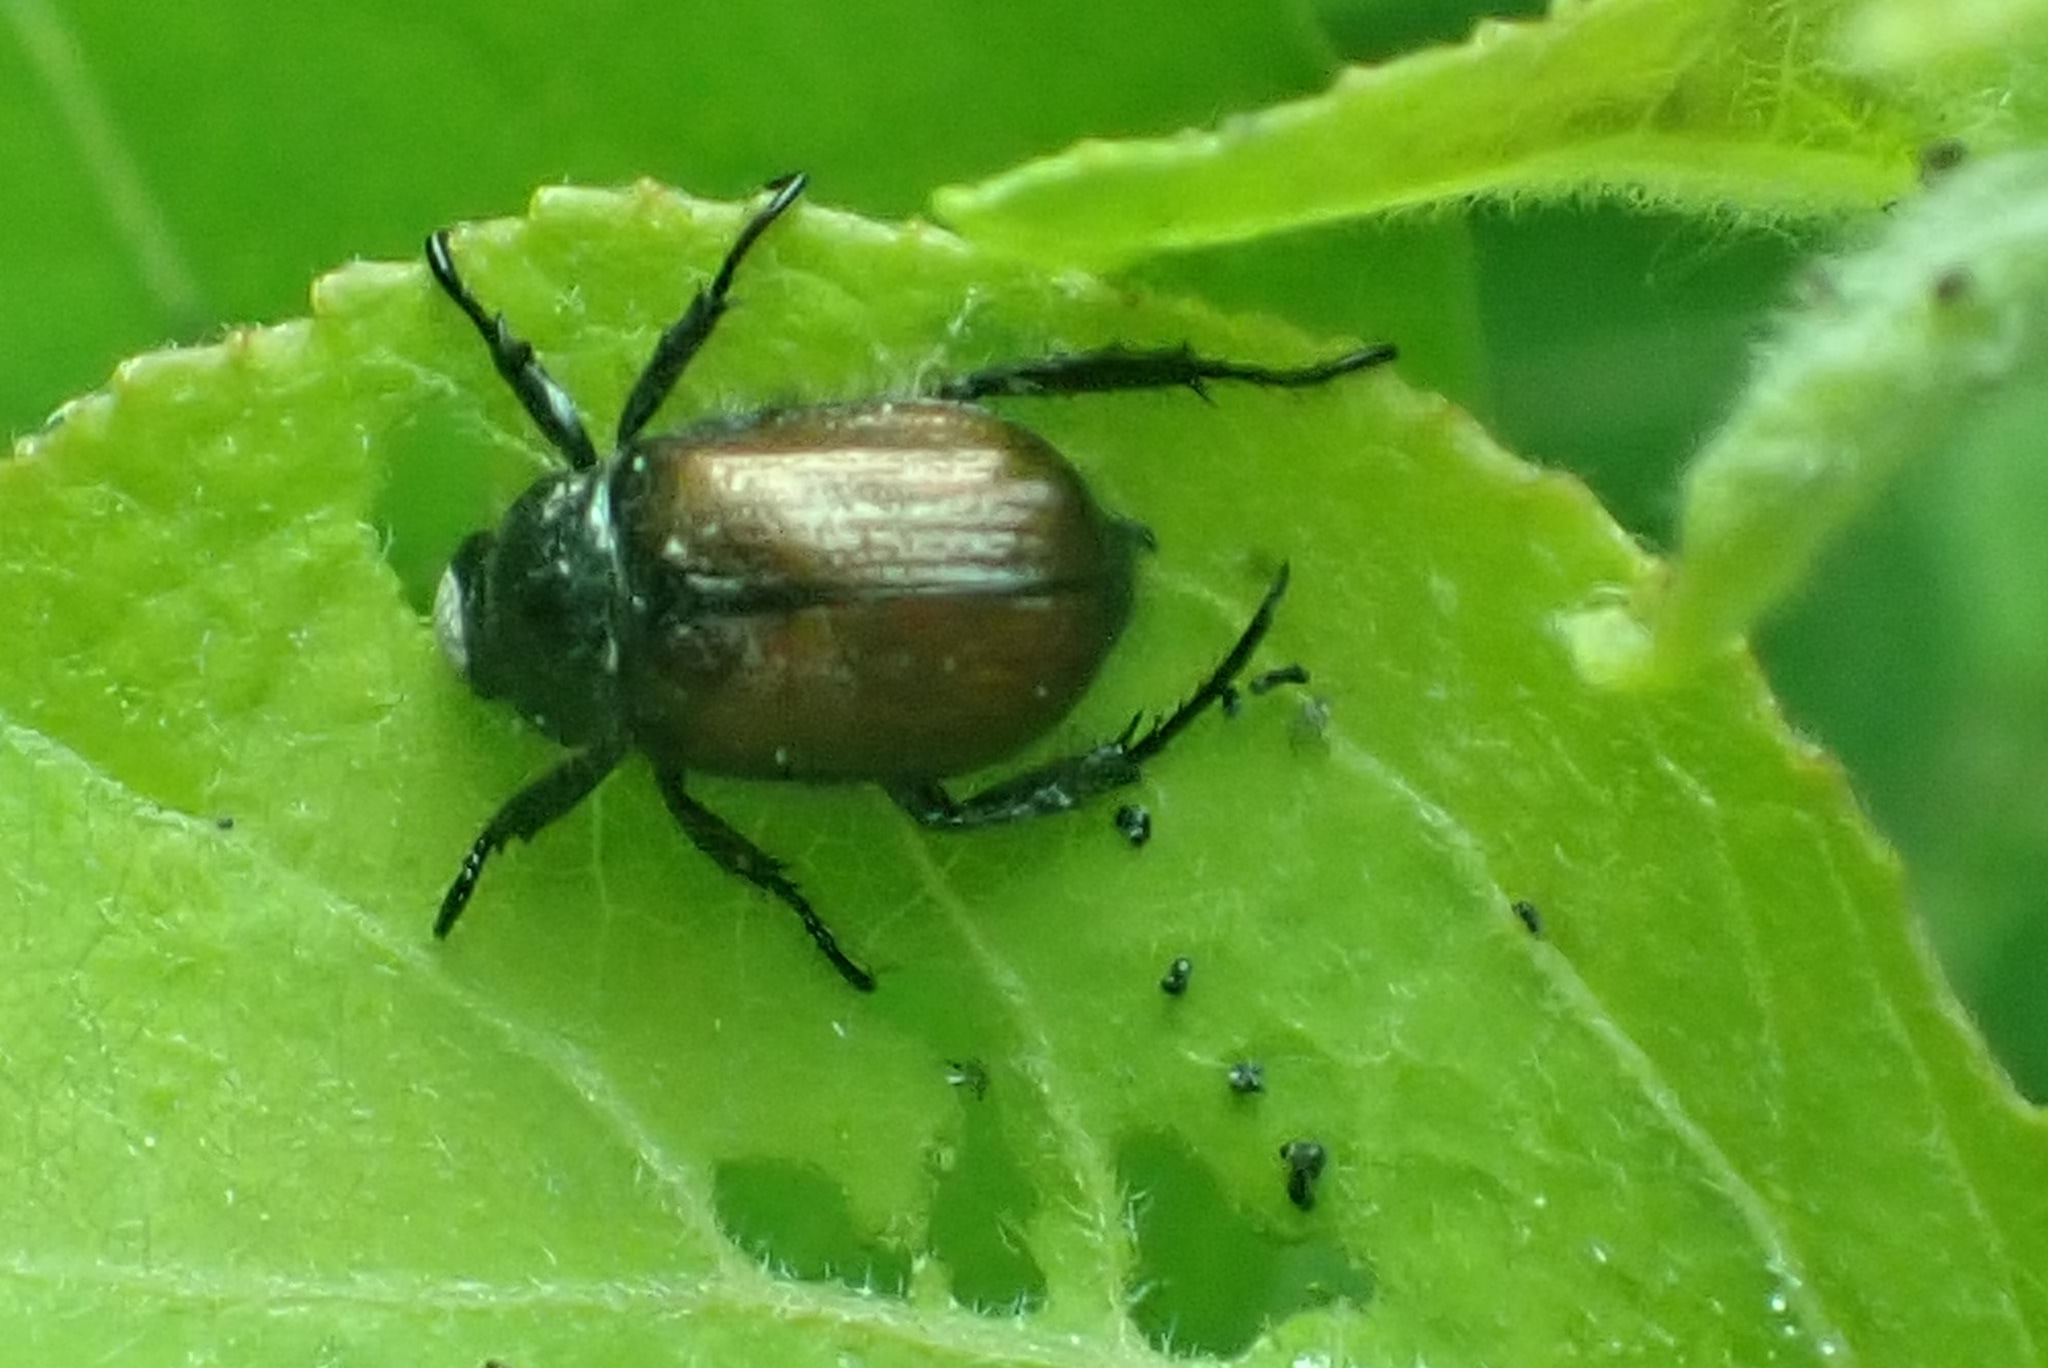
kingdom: Animalia
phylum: Arthropoda
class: Insecta
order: Coleoptera
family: Scarabaeidae
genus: Phyllopertha
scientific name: Phyllopertha horticola
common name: Garden chafer
